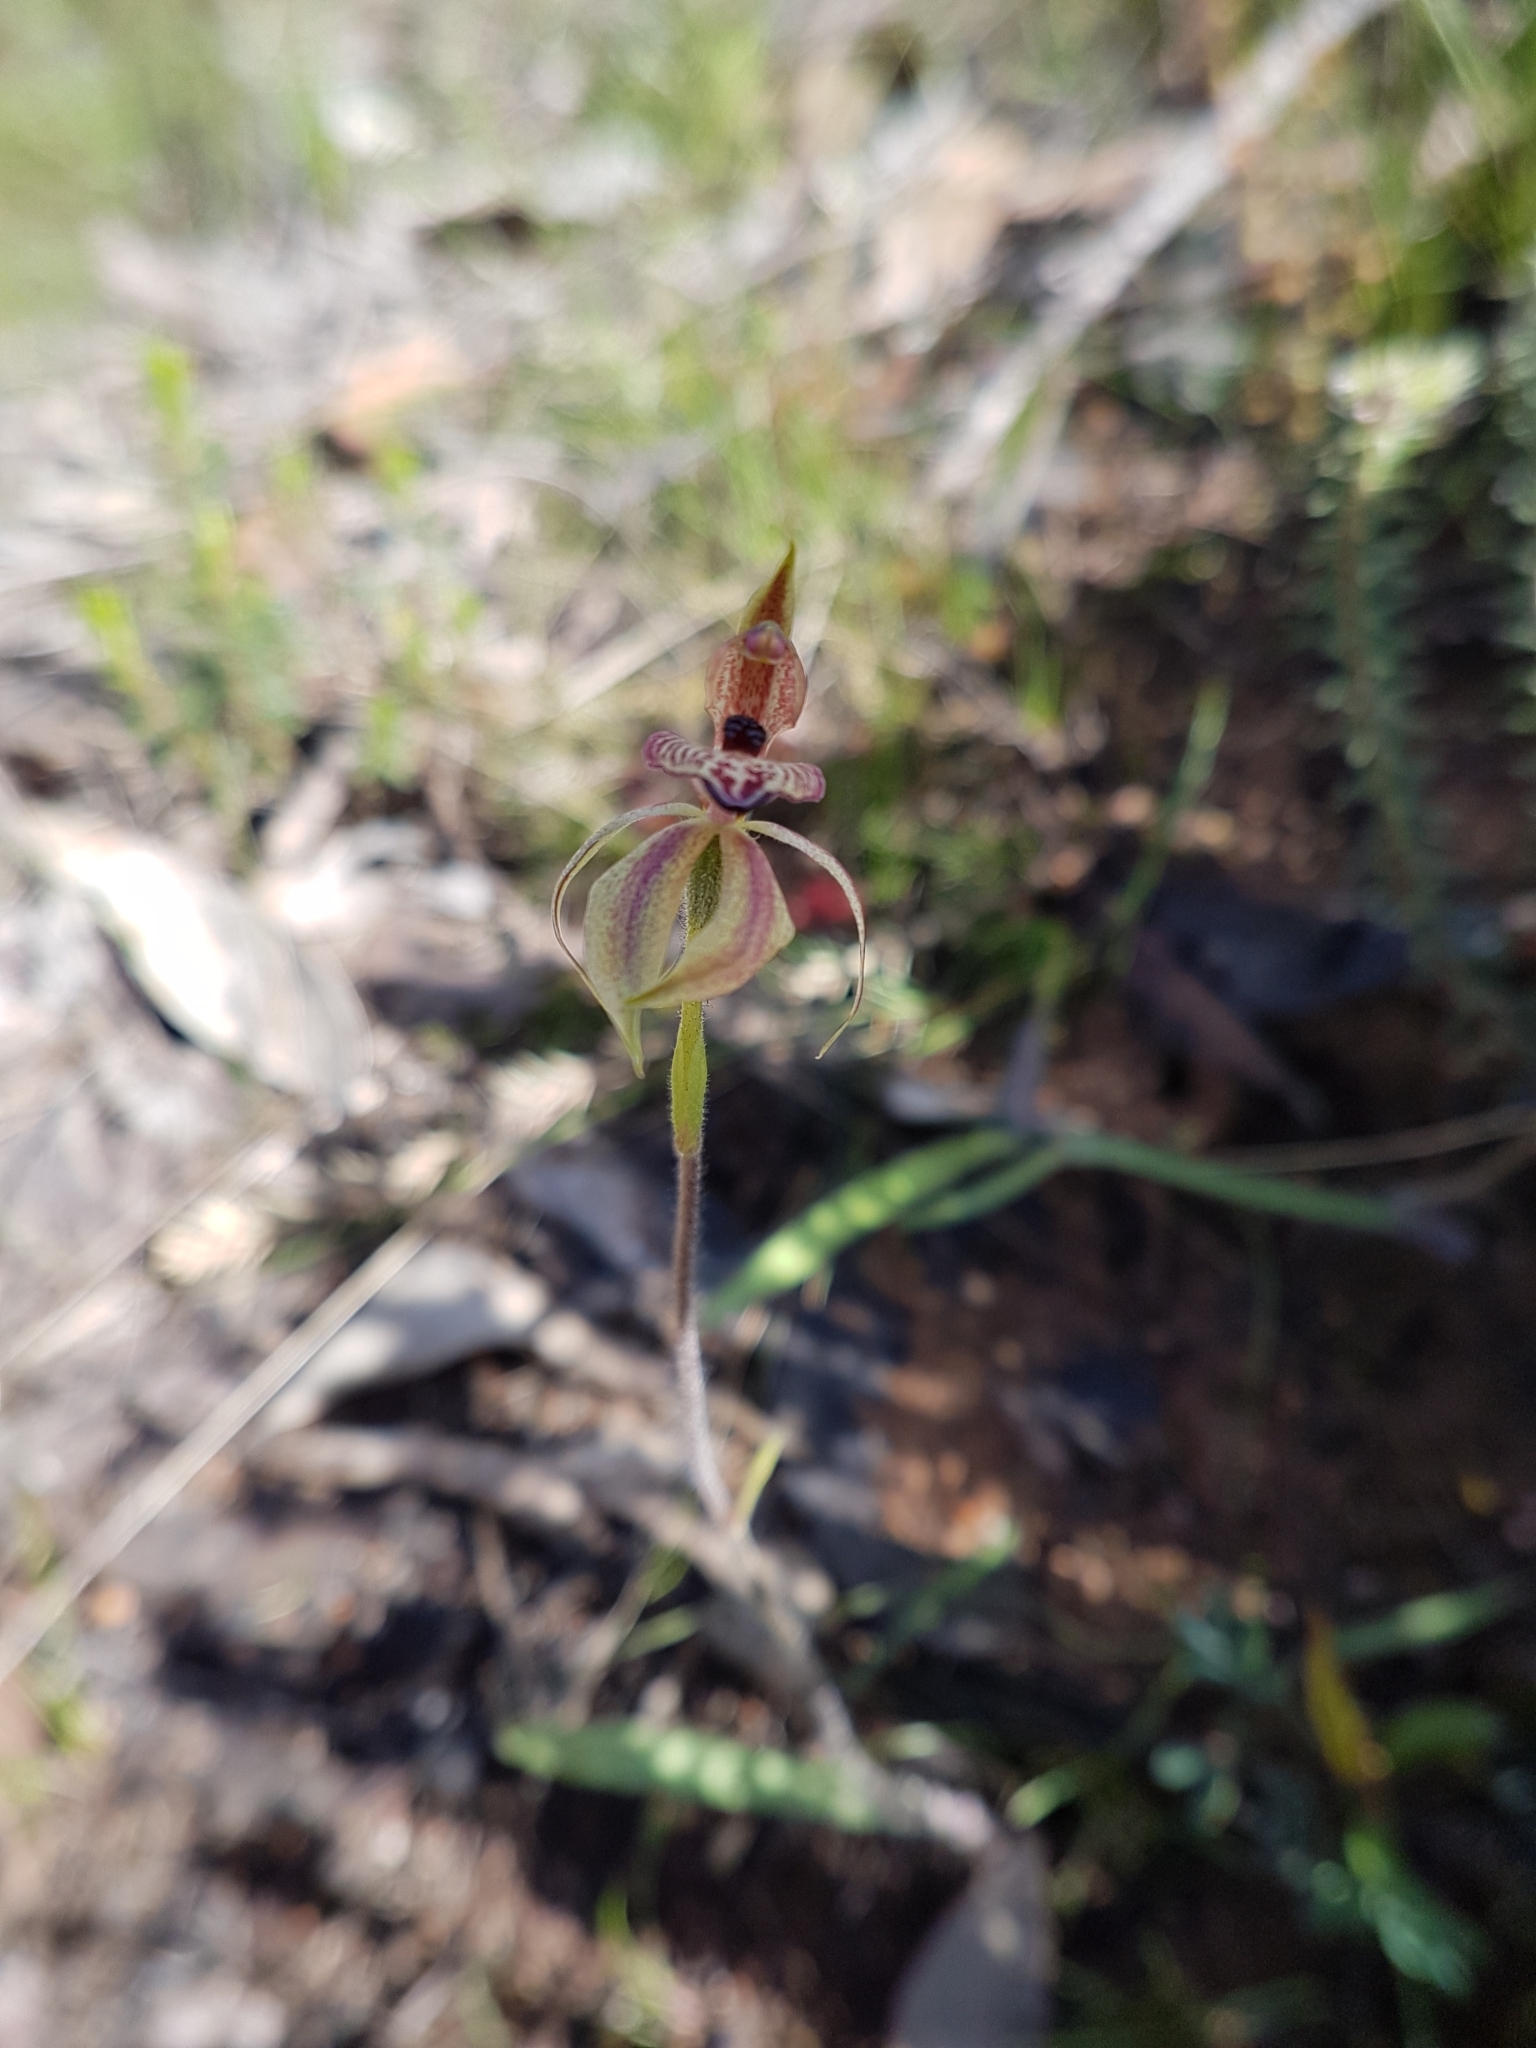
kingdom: Plantae
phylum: Tracheophyta
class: Liliopsida
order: Asparagales
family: Orchidaceae
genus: Caladenia
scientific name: Caladenia cardiochila
